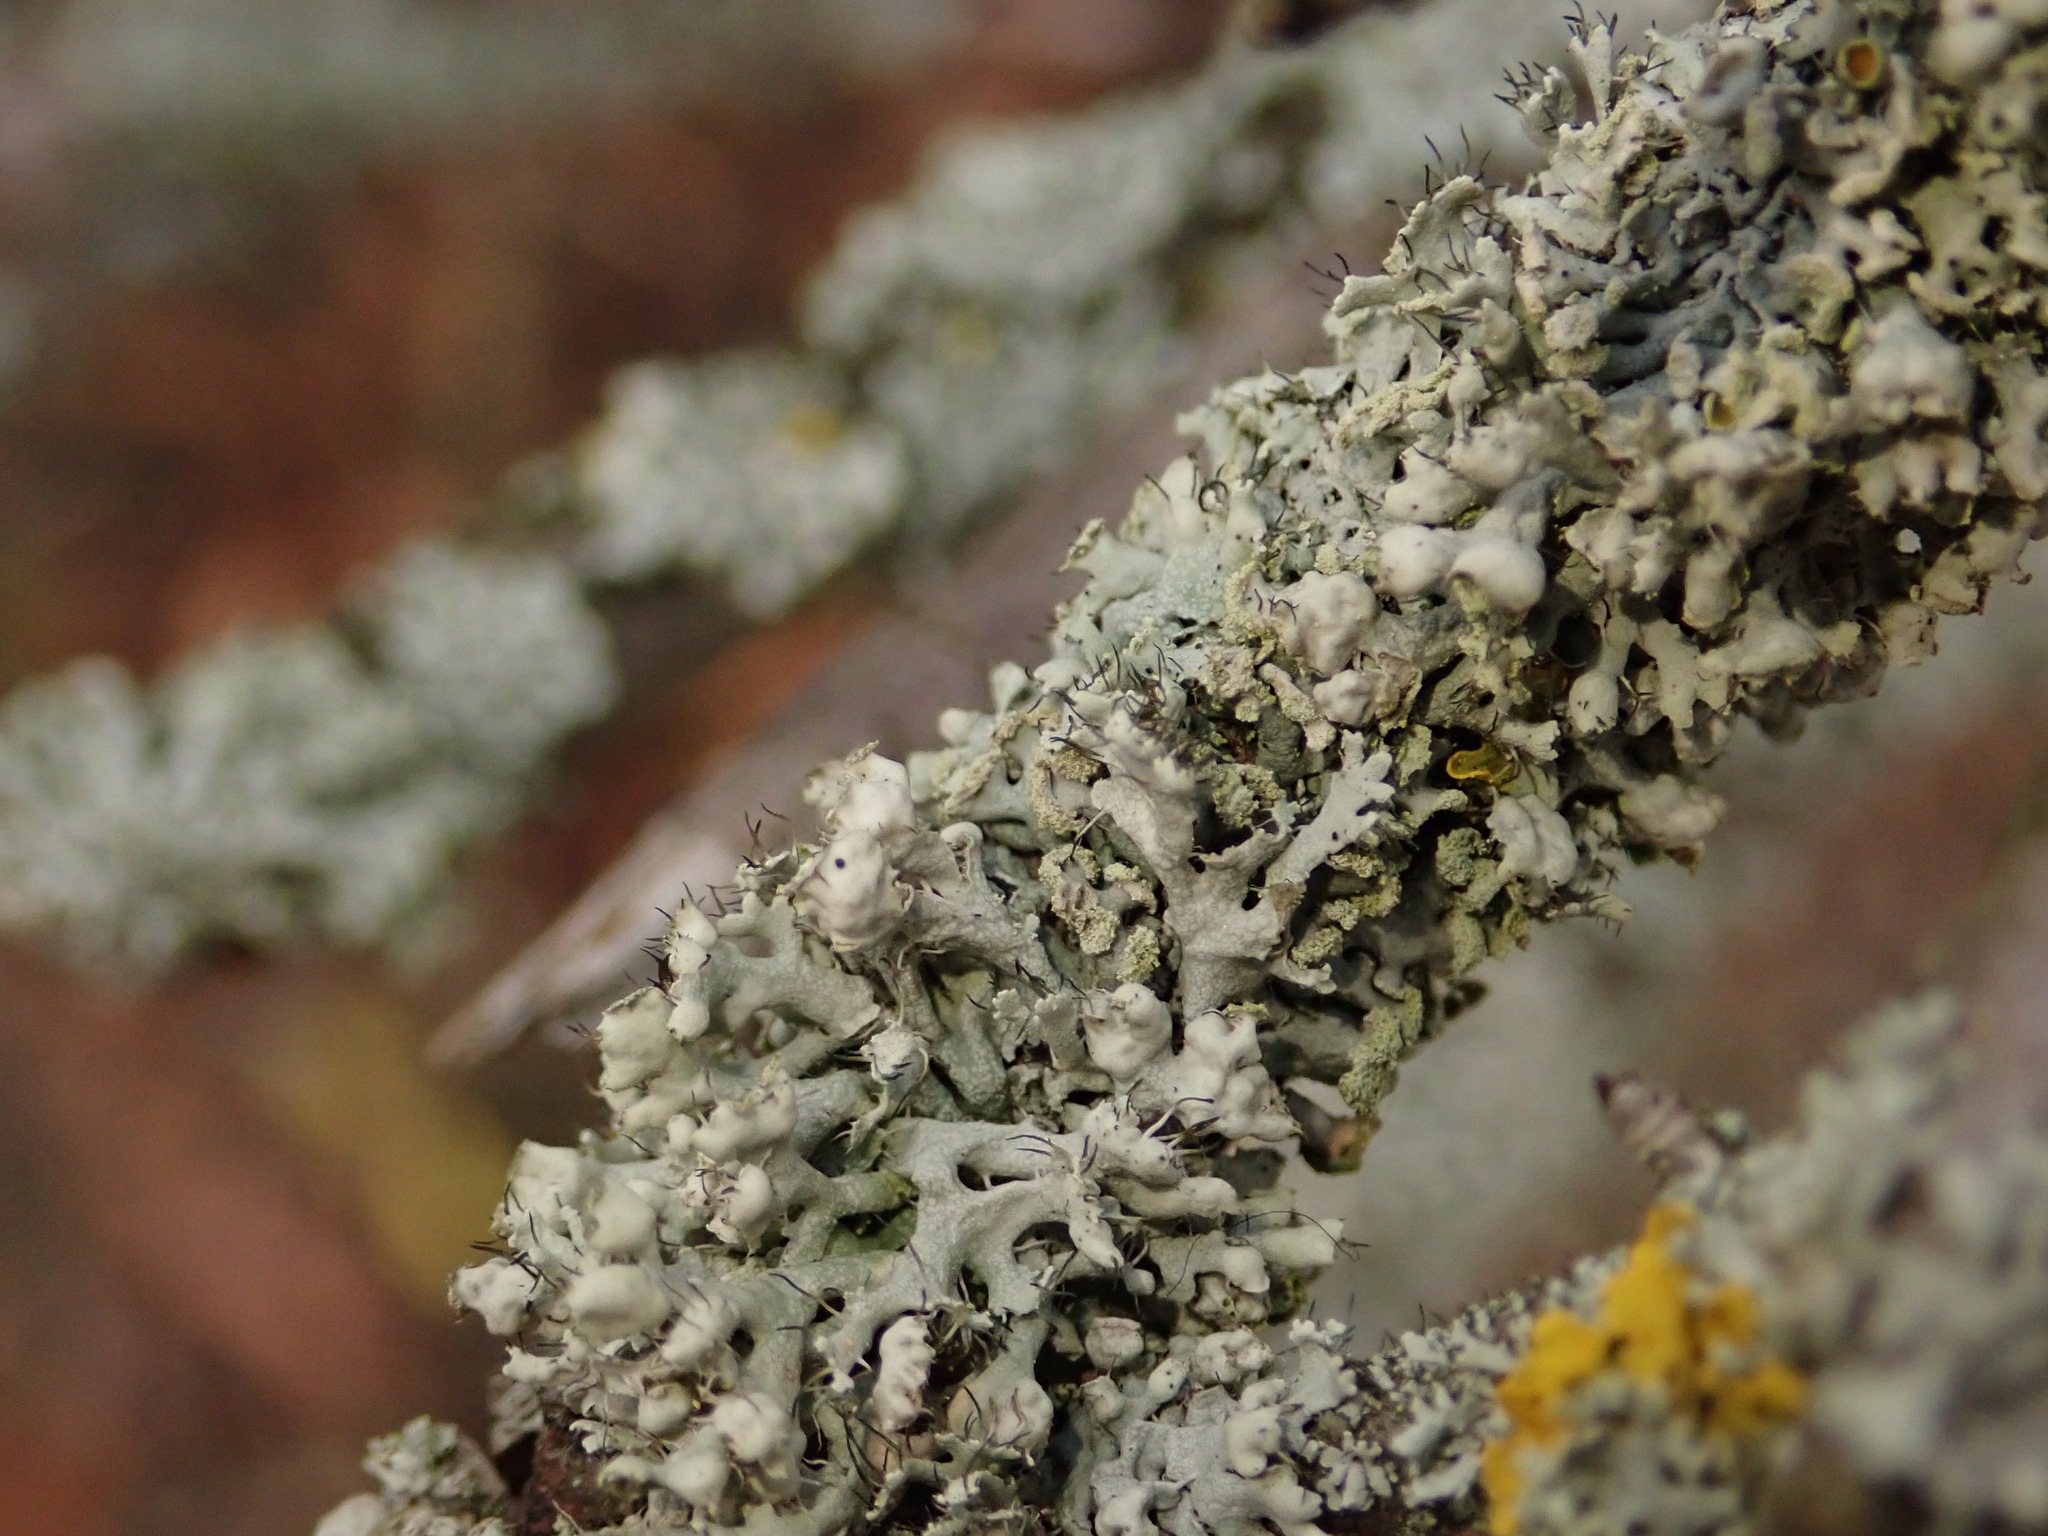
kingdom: Fungi
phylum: Ascomycota
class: Lecanoromycetes
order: Caliciales
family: Physciaceae
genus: Physcia
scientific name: Physcia adscendens
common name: Hooded rosette lichen
